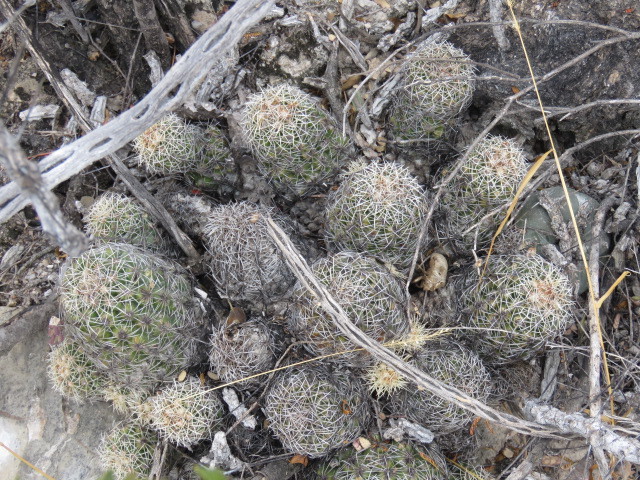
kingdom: Plantae
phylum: Tracheophyta
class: Magnoliopsida
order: Caryophyllales
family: Cactaceae
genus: Thelocactus
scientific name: Thelocactus leucacanthus
